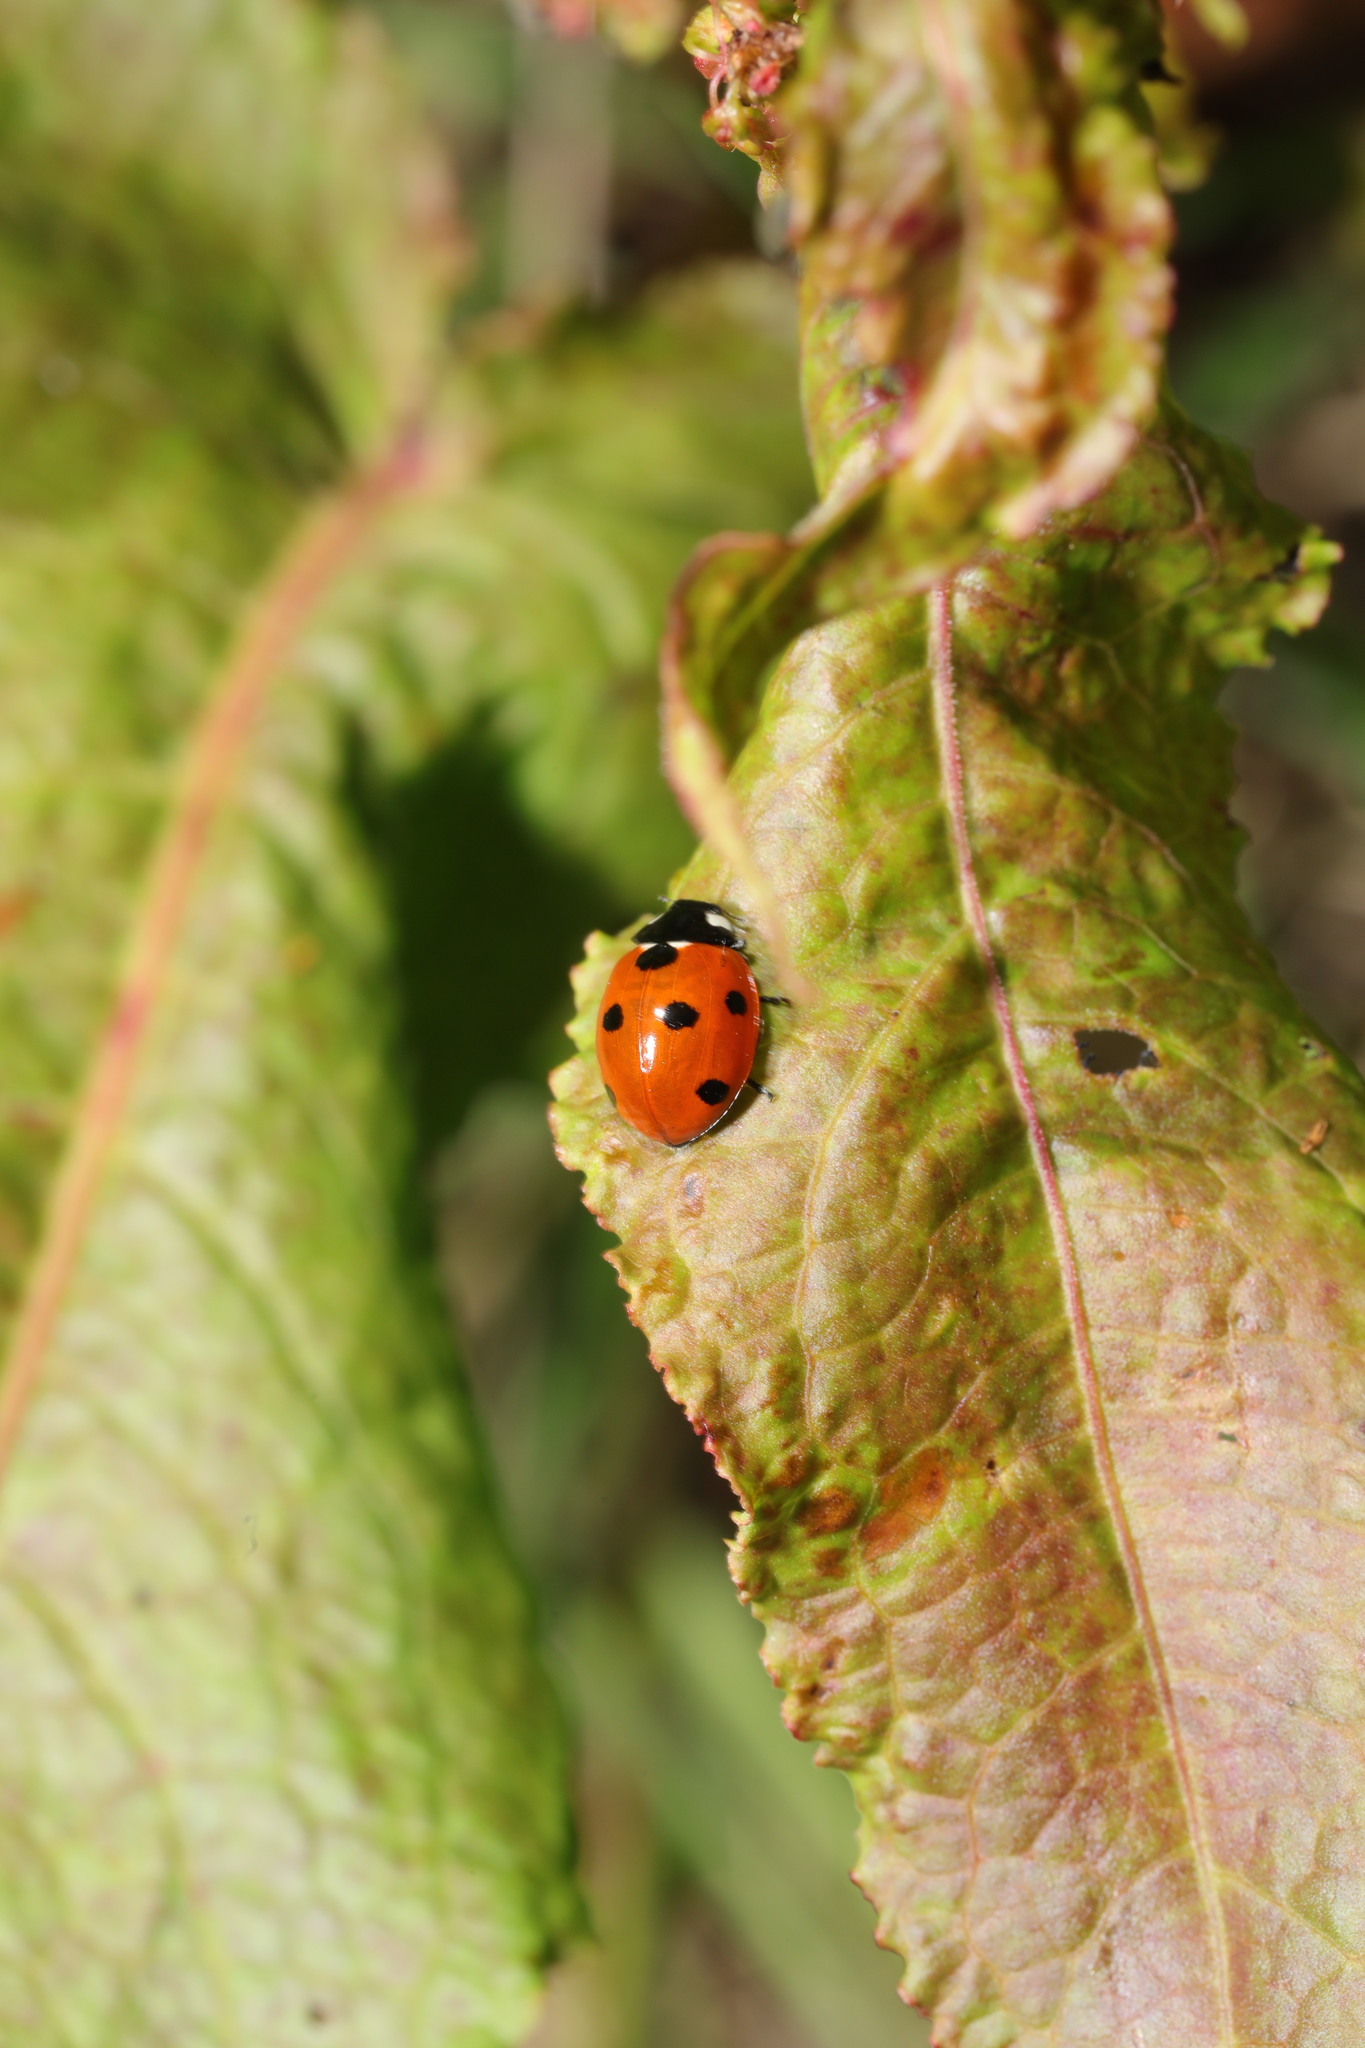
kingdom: Animalia
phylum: Arthropoda
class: Insecta
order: Coleoptera
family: Coccinellidae
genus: Coccinella
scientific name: Coccinella septempunctata
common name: Sevenspotted lady beetle
